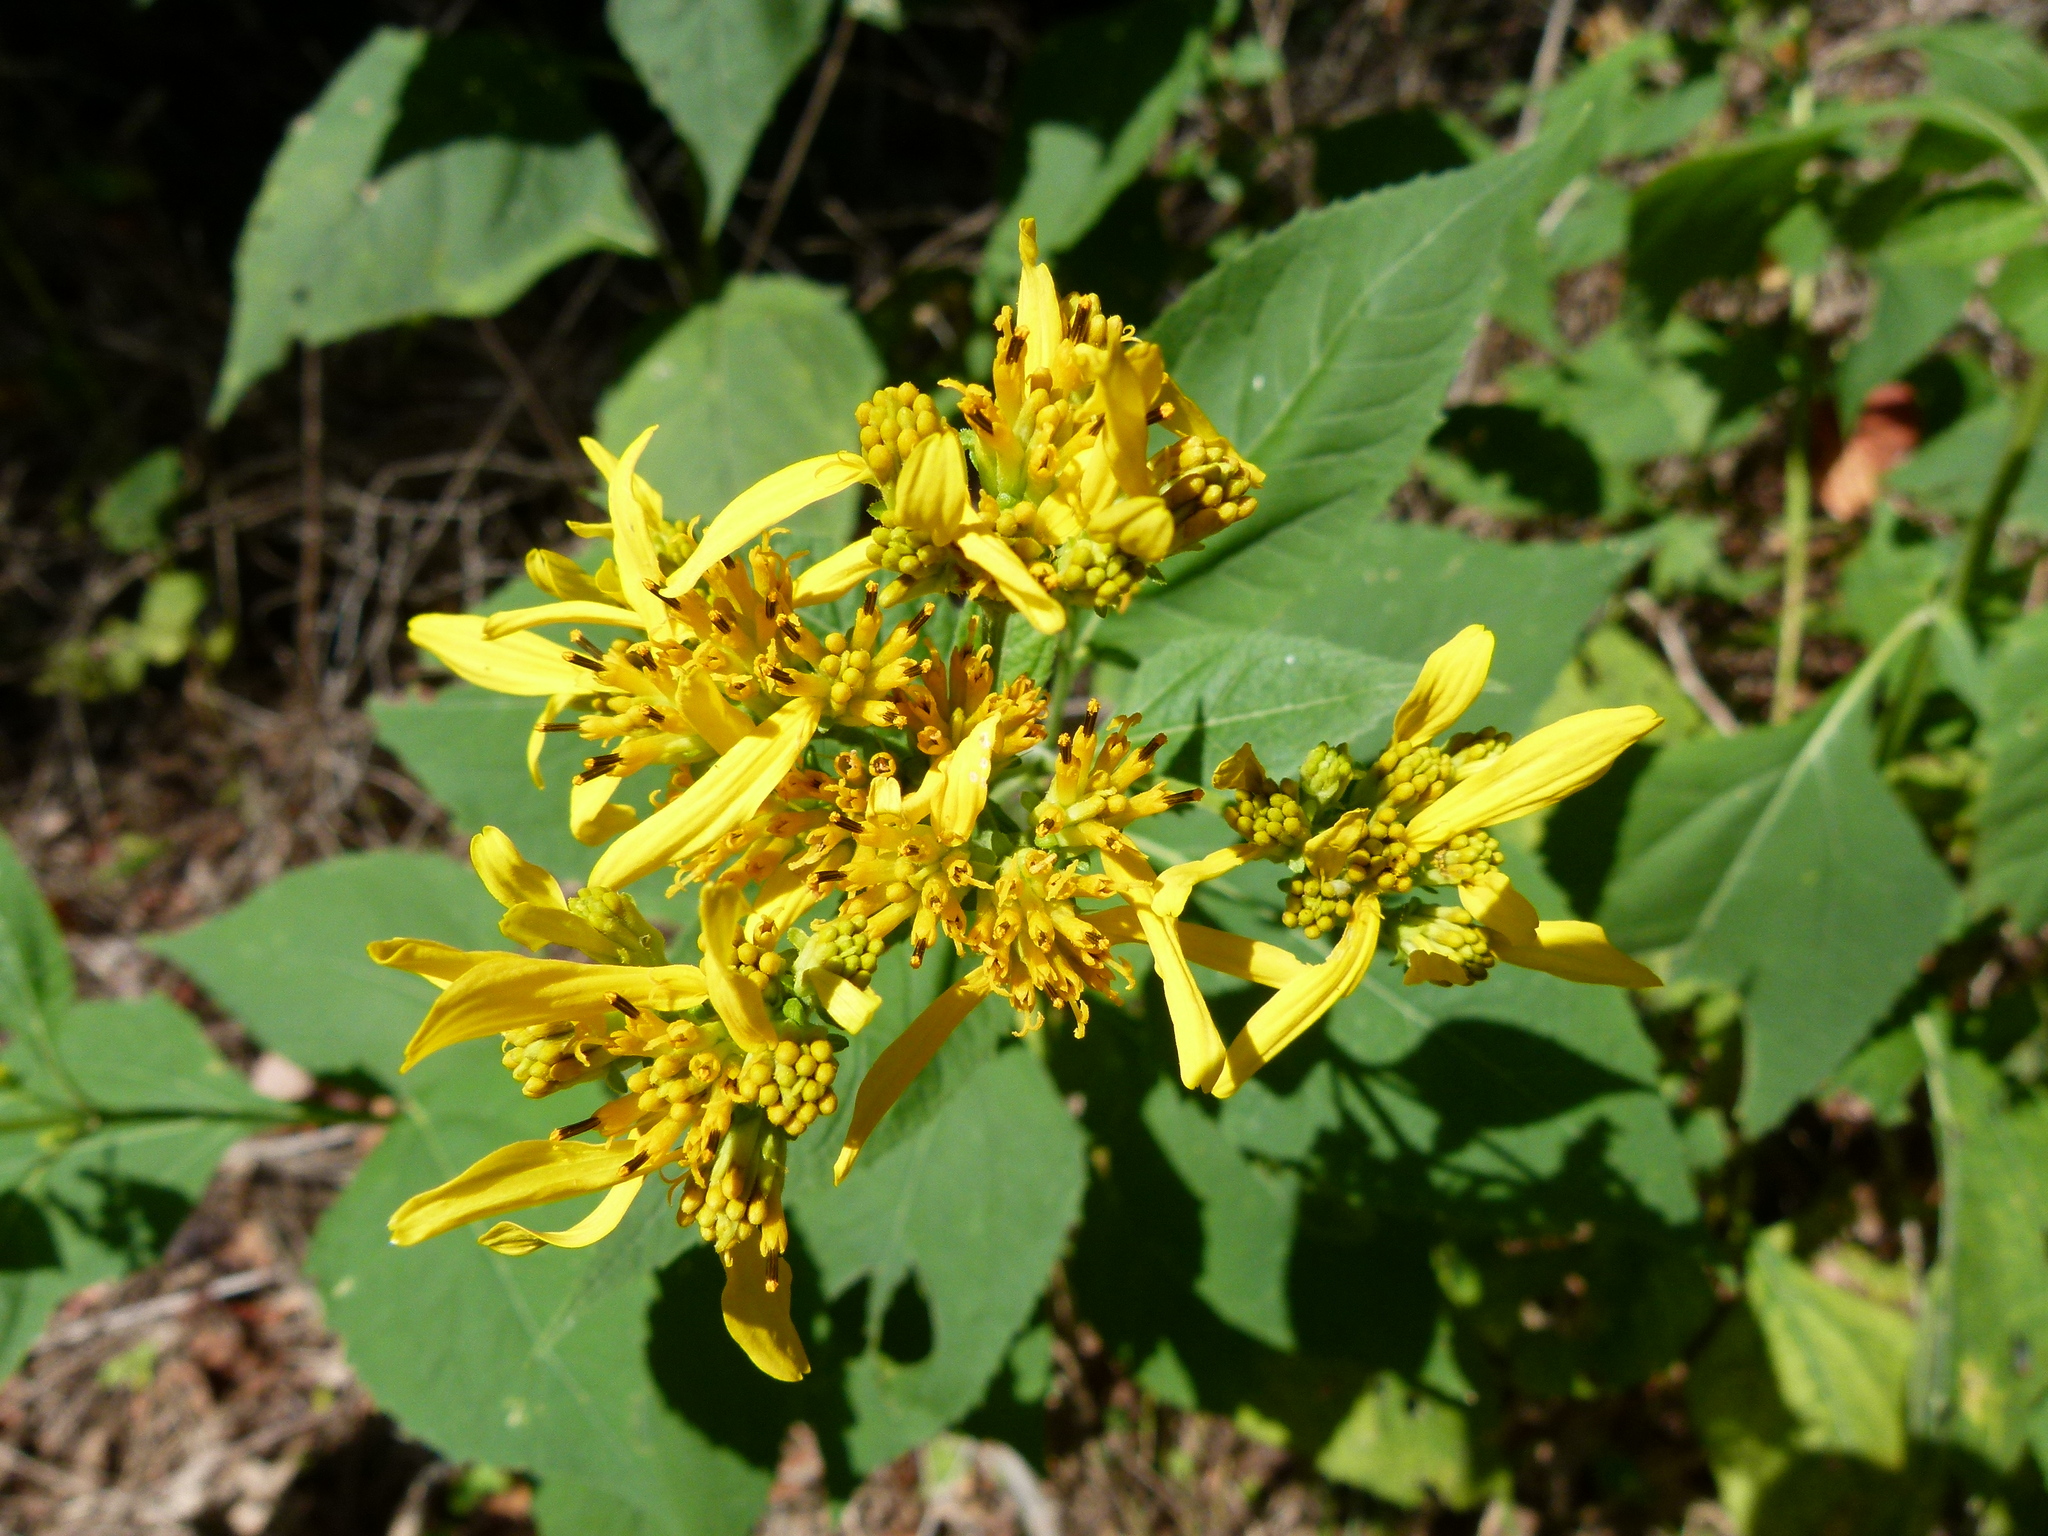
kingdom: Plantae
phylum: Tracheophyta
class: Magnoliopsida
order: Asterales
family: Asteraceae
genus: Verbesina
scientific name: Verbesina occidentalis
